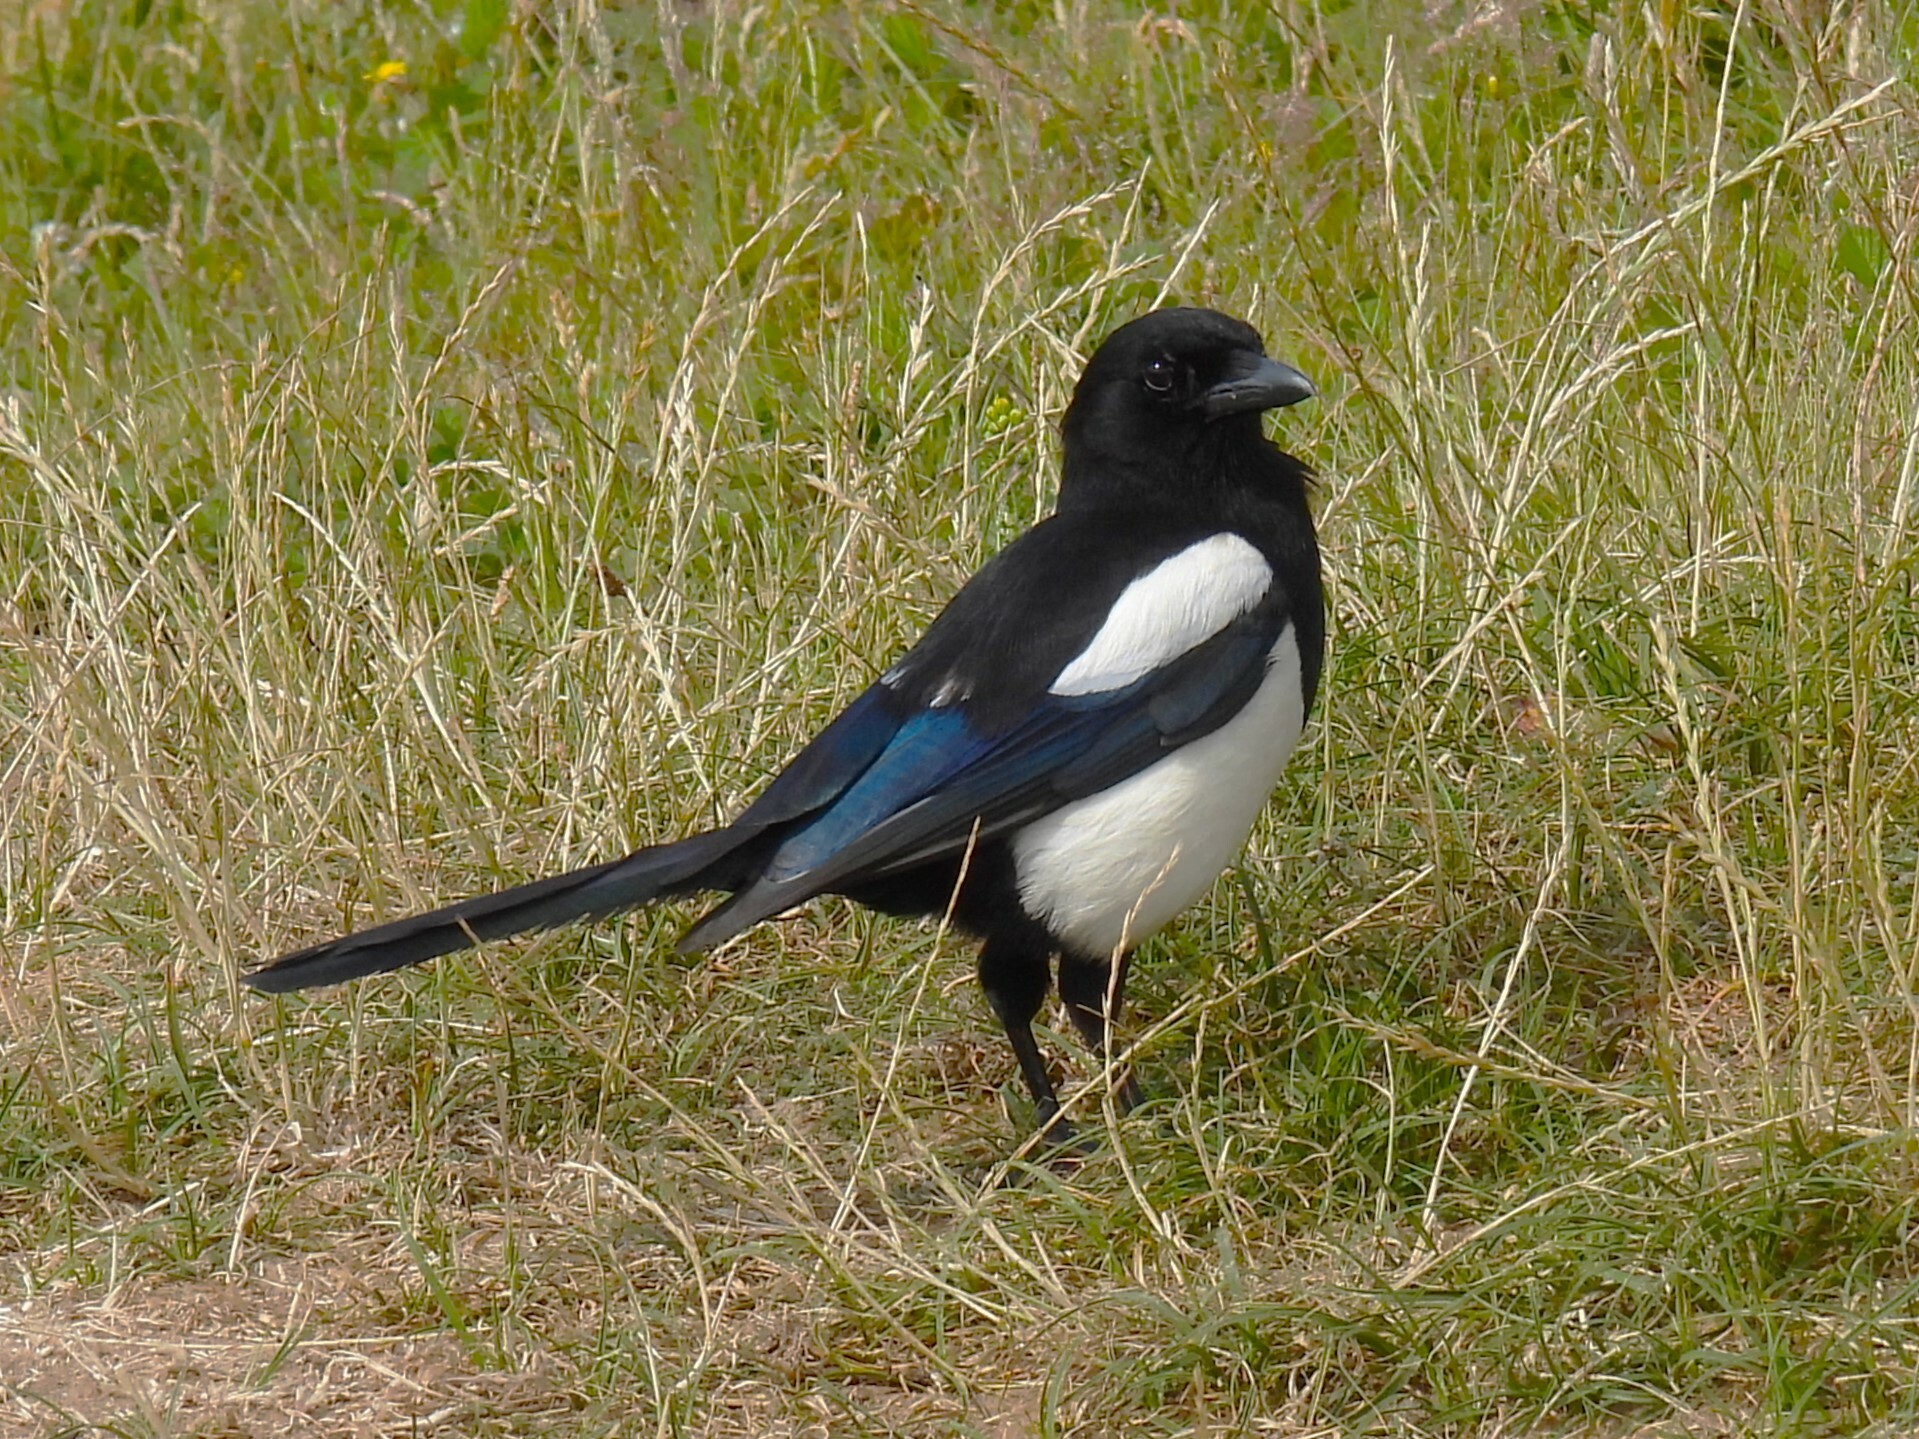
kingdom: Animalia
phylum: Chordata
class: Aves
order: Passeriformes
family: Corvidae
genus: Pica
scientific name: Pica pica
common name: Eurasian magpie
